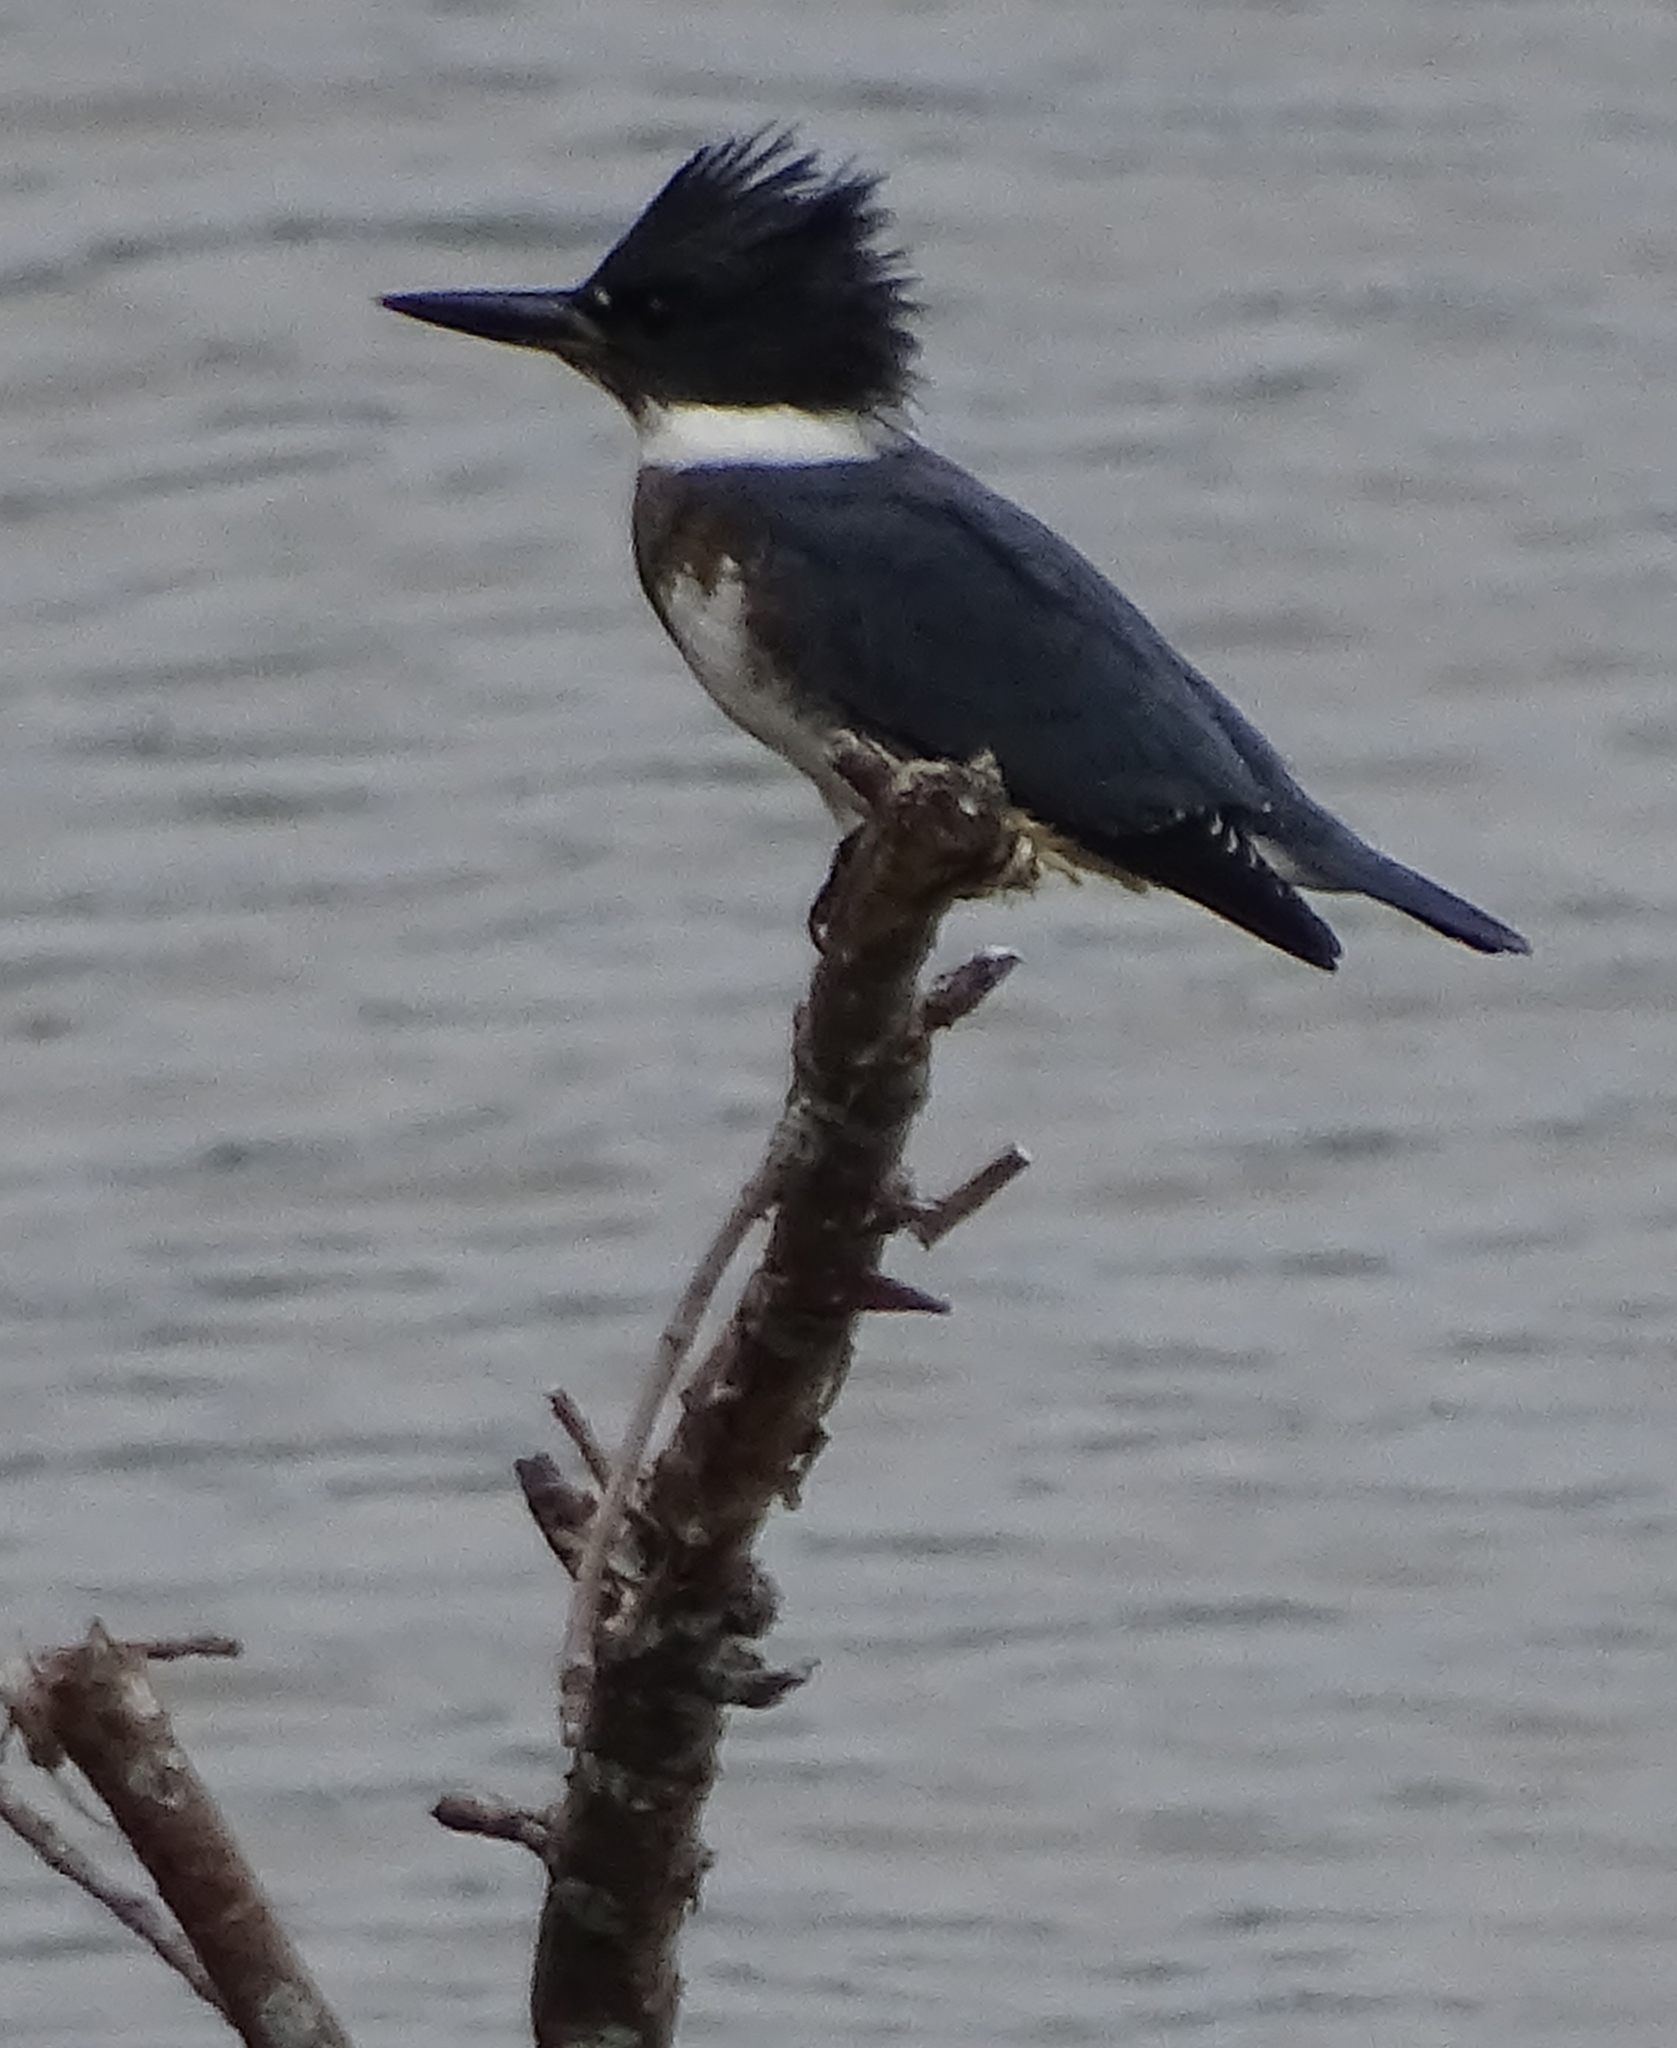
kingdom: Animalia
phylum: Chordata
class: Aves
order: Coraciiformes
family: Alcedinidae
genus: Megaceryle
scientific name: Megaceryle alcyon
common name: Belted kingfisher
